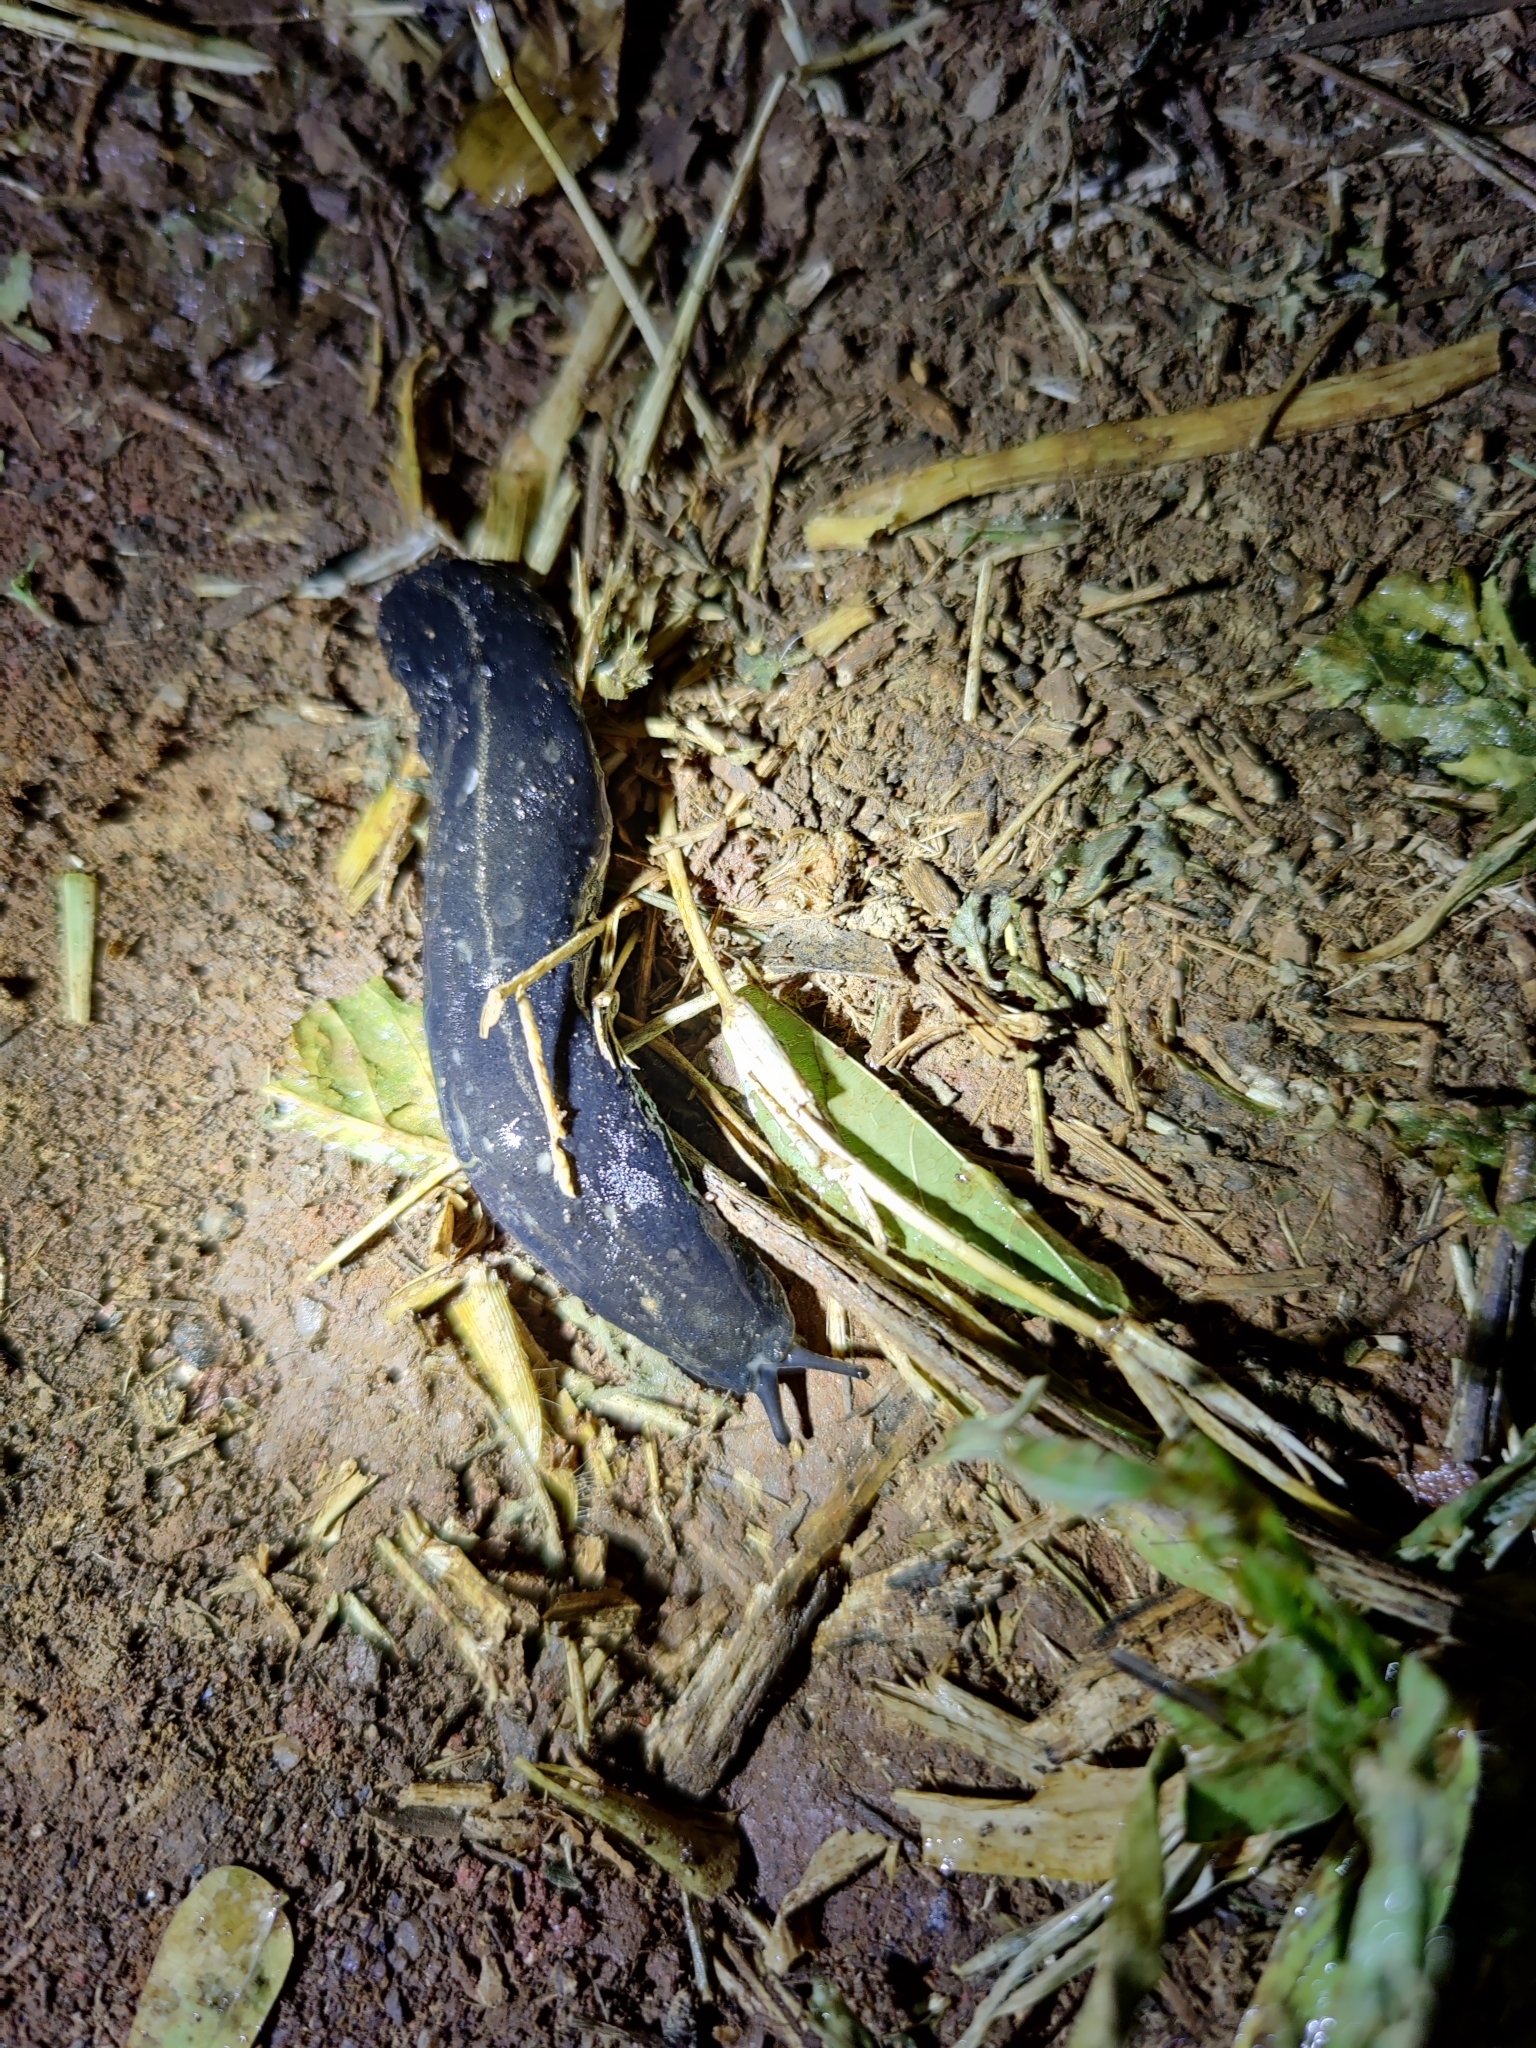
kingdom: Animalia
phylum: Mollusca
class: Gastropoda
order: Systellommatophora
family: Veronicellidae
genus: Laevicaulis
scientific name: Laevicaulis alte
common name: Tropical leatherleaf
